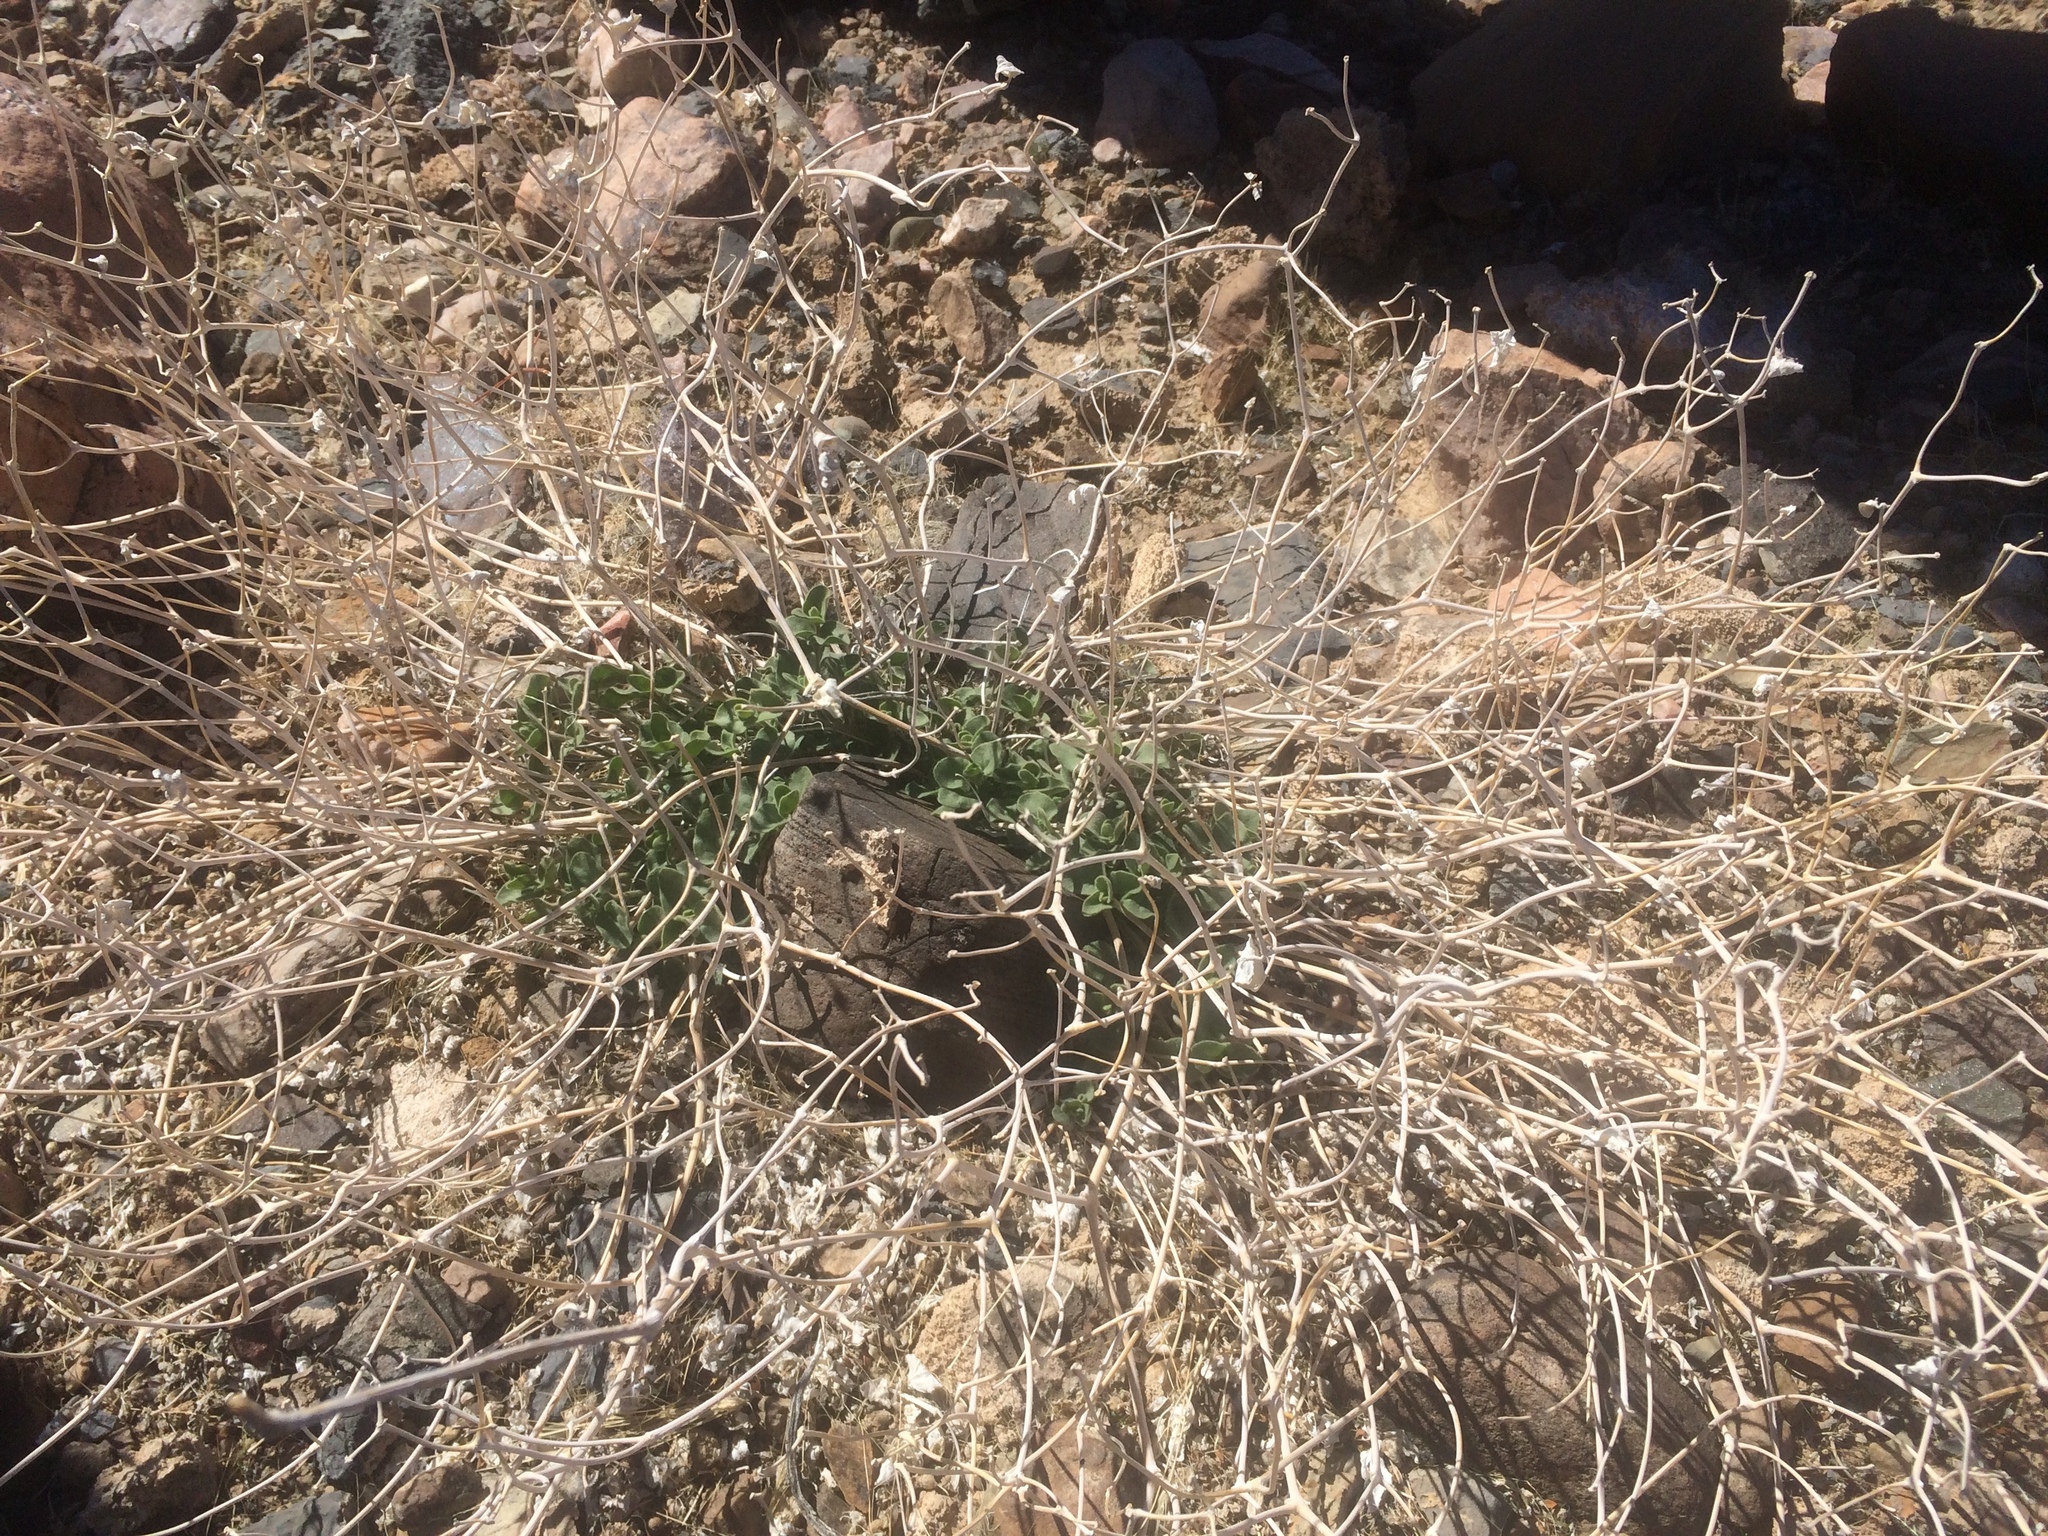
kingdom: Plantae
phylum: Tracheophyta
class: Magnoliopsida
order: Caryophyllales
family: Nyctaginaceae
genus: Mirabilis
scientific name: Mirabilis laevis
